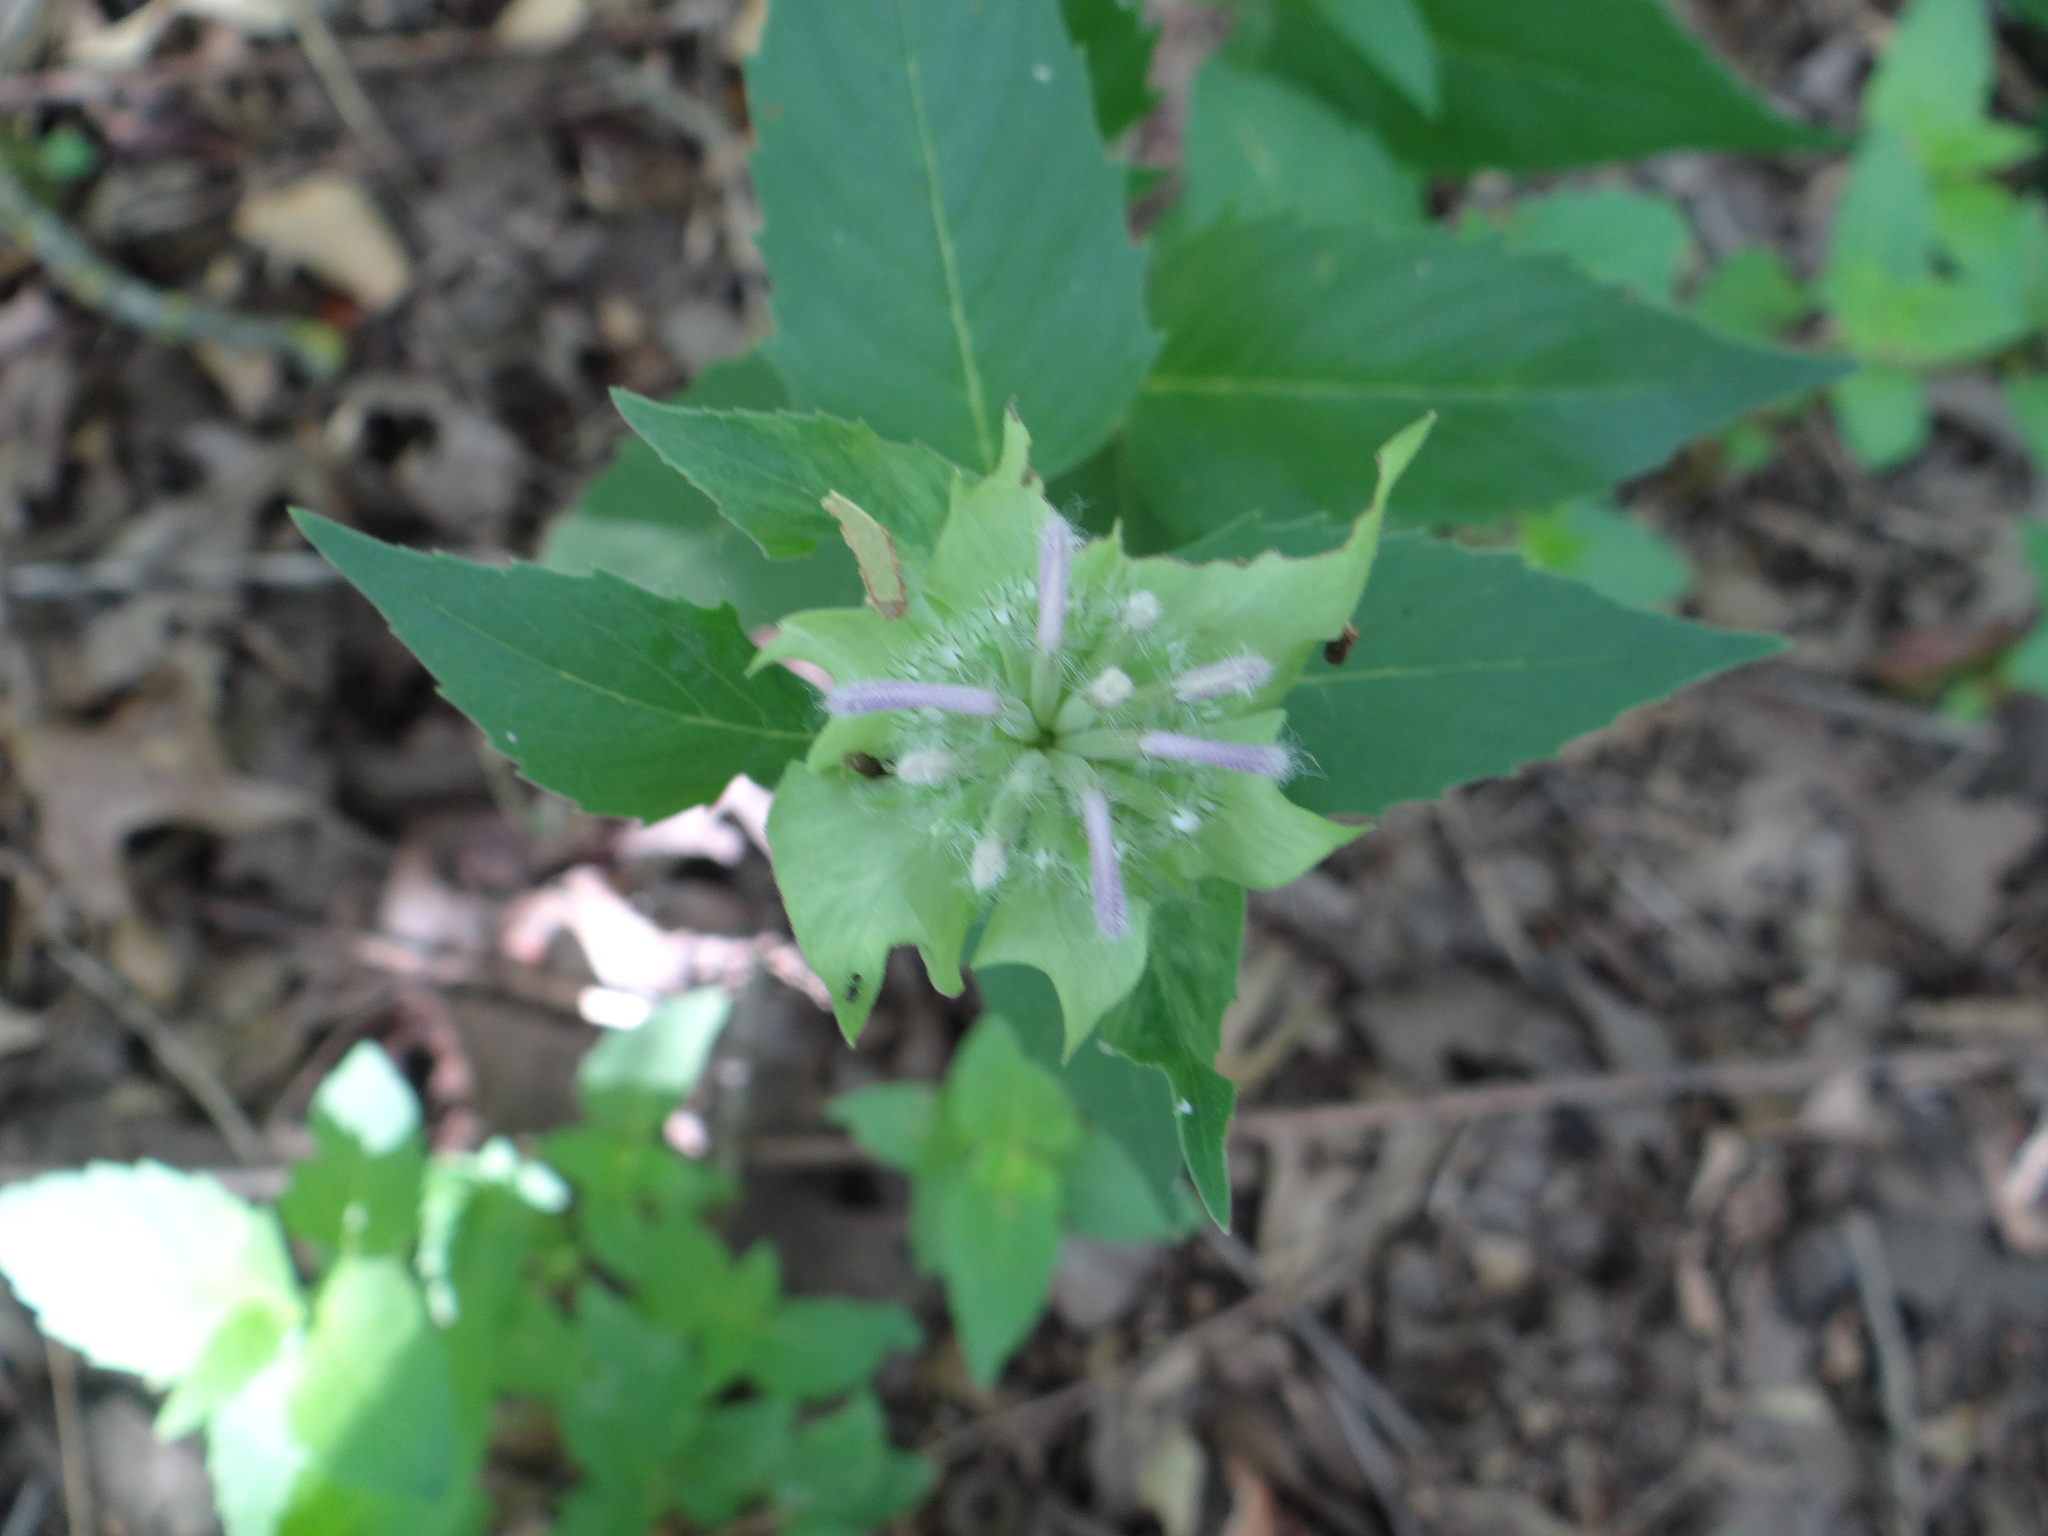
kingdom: Plantae
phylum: Tracheophyta
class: Magnoliopsida
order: Lamiales
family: Lamiaceae
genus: Monarda
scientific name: Monarda fistulosa
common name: Purple beebalm
